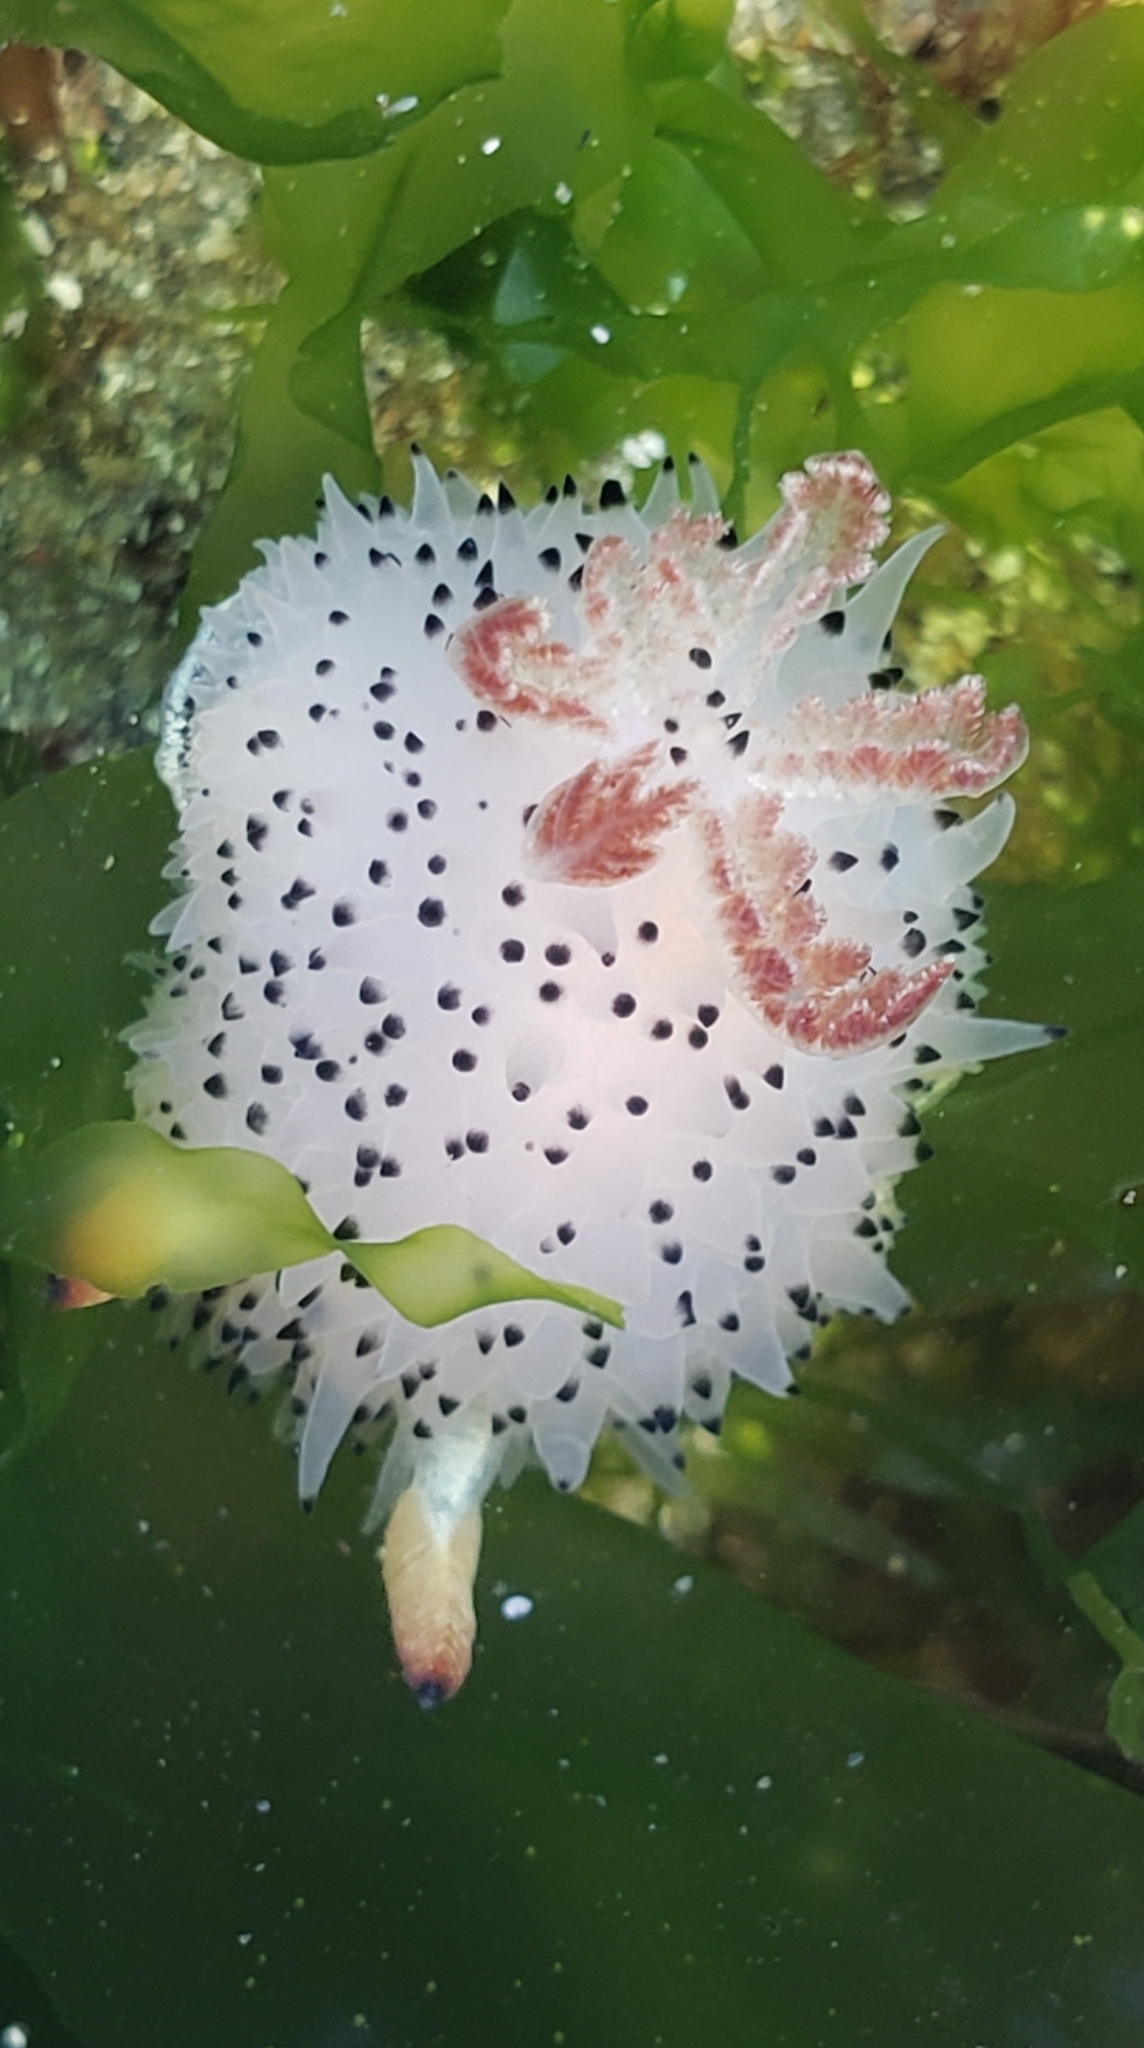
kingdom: Animalia
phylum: Mollusca
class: Gastropoda
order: Nudibranchia
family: Onchidorididae
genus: Acanthodoris
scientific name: Acanthodoris rhodoceras
